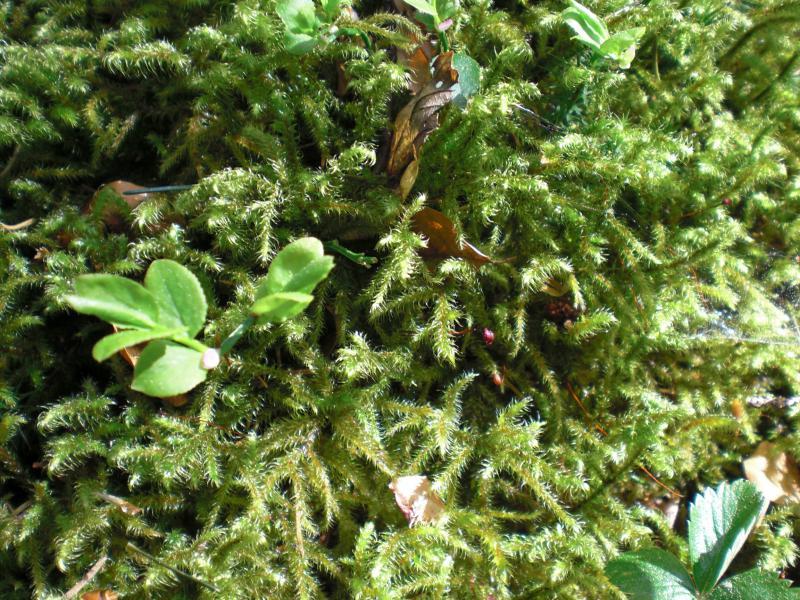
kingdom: Plantae
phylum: Bryophyta
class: Bryopsida
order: Hypnales
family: Hylocomiaceae
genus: Rhytidiadelphus
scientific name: Rhytidiadelphus loreus
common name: Lanky moss
